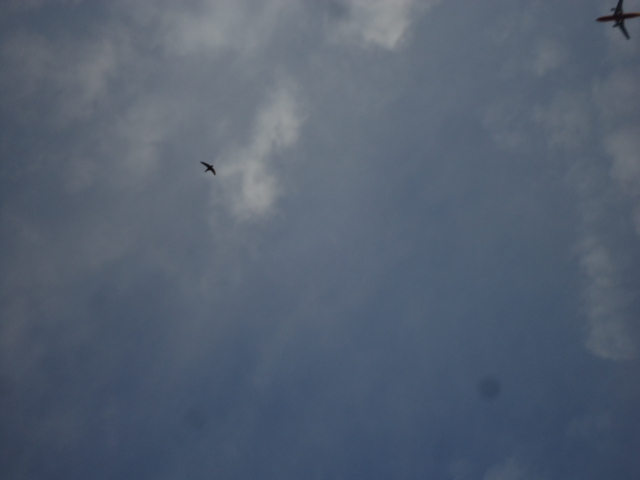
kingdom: Animalia
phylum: Chordata
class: Aves
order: Apodiformes
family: Apodidae
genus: Apus
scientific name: Apus apus
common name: Common swift
